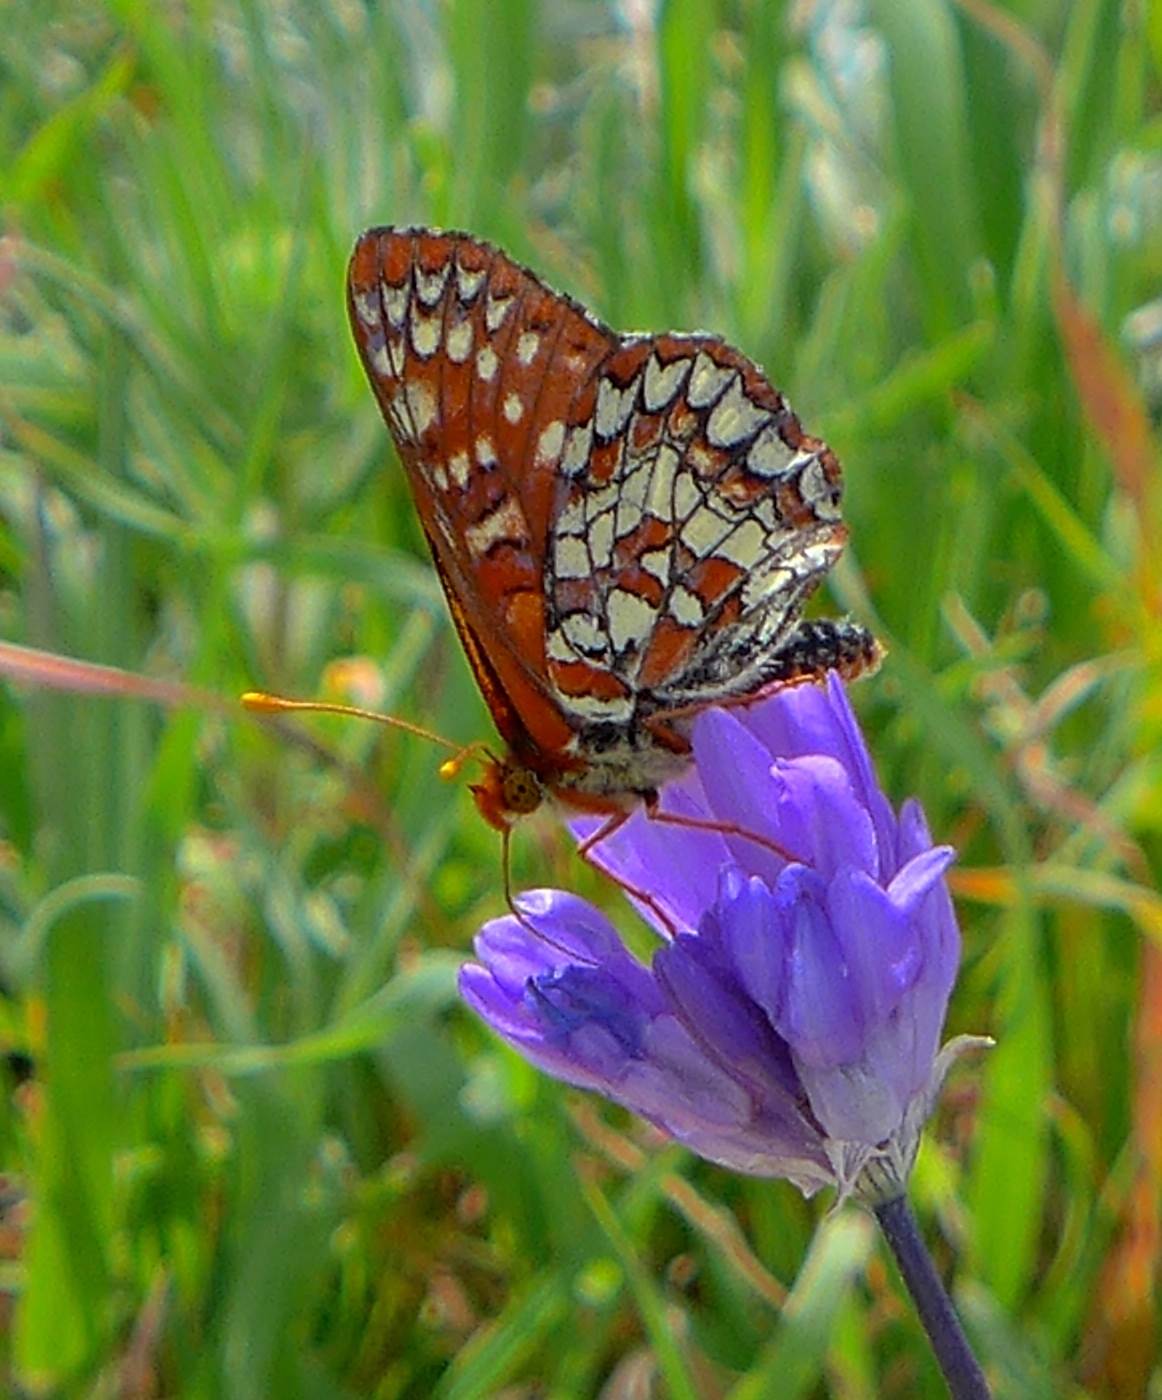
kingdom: Animalia
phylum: Arthropoda
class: Insecta
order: Lepidoptera
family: Nymphalidae
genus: Occidryas
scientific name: Occidryas chalcedona
